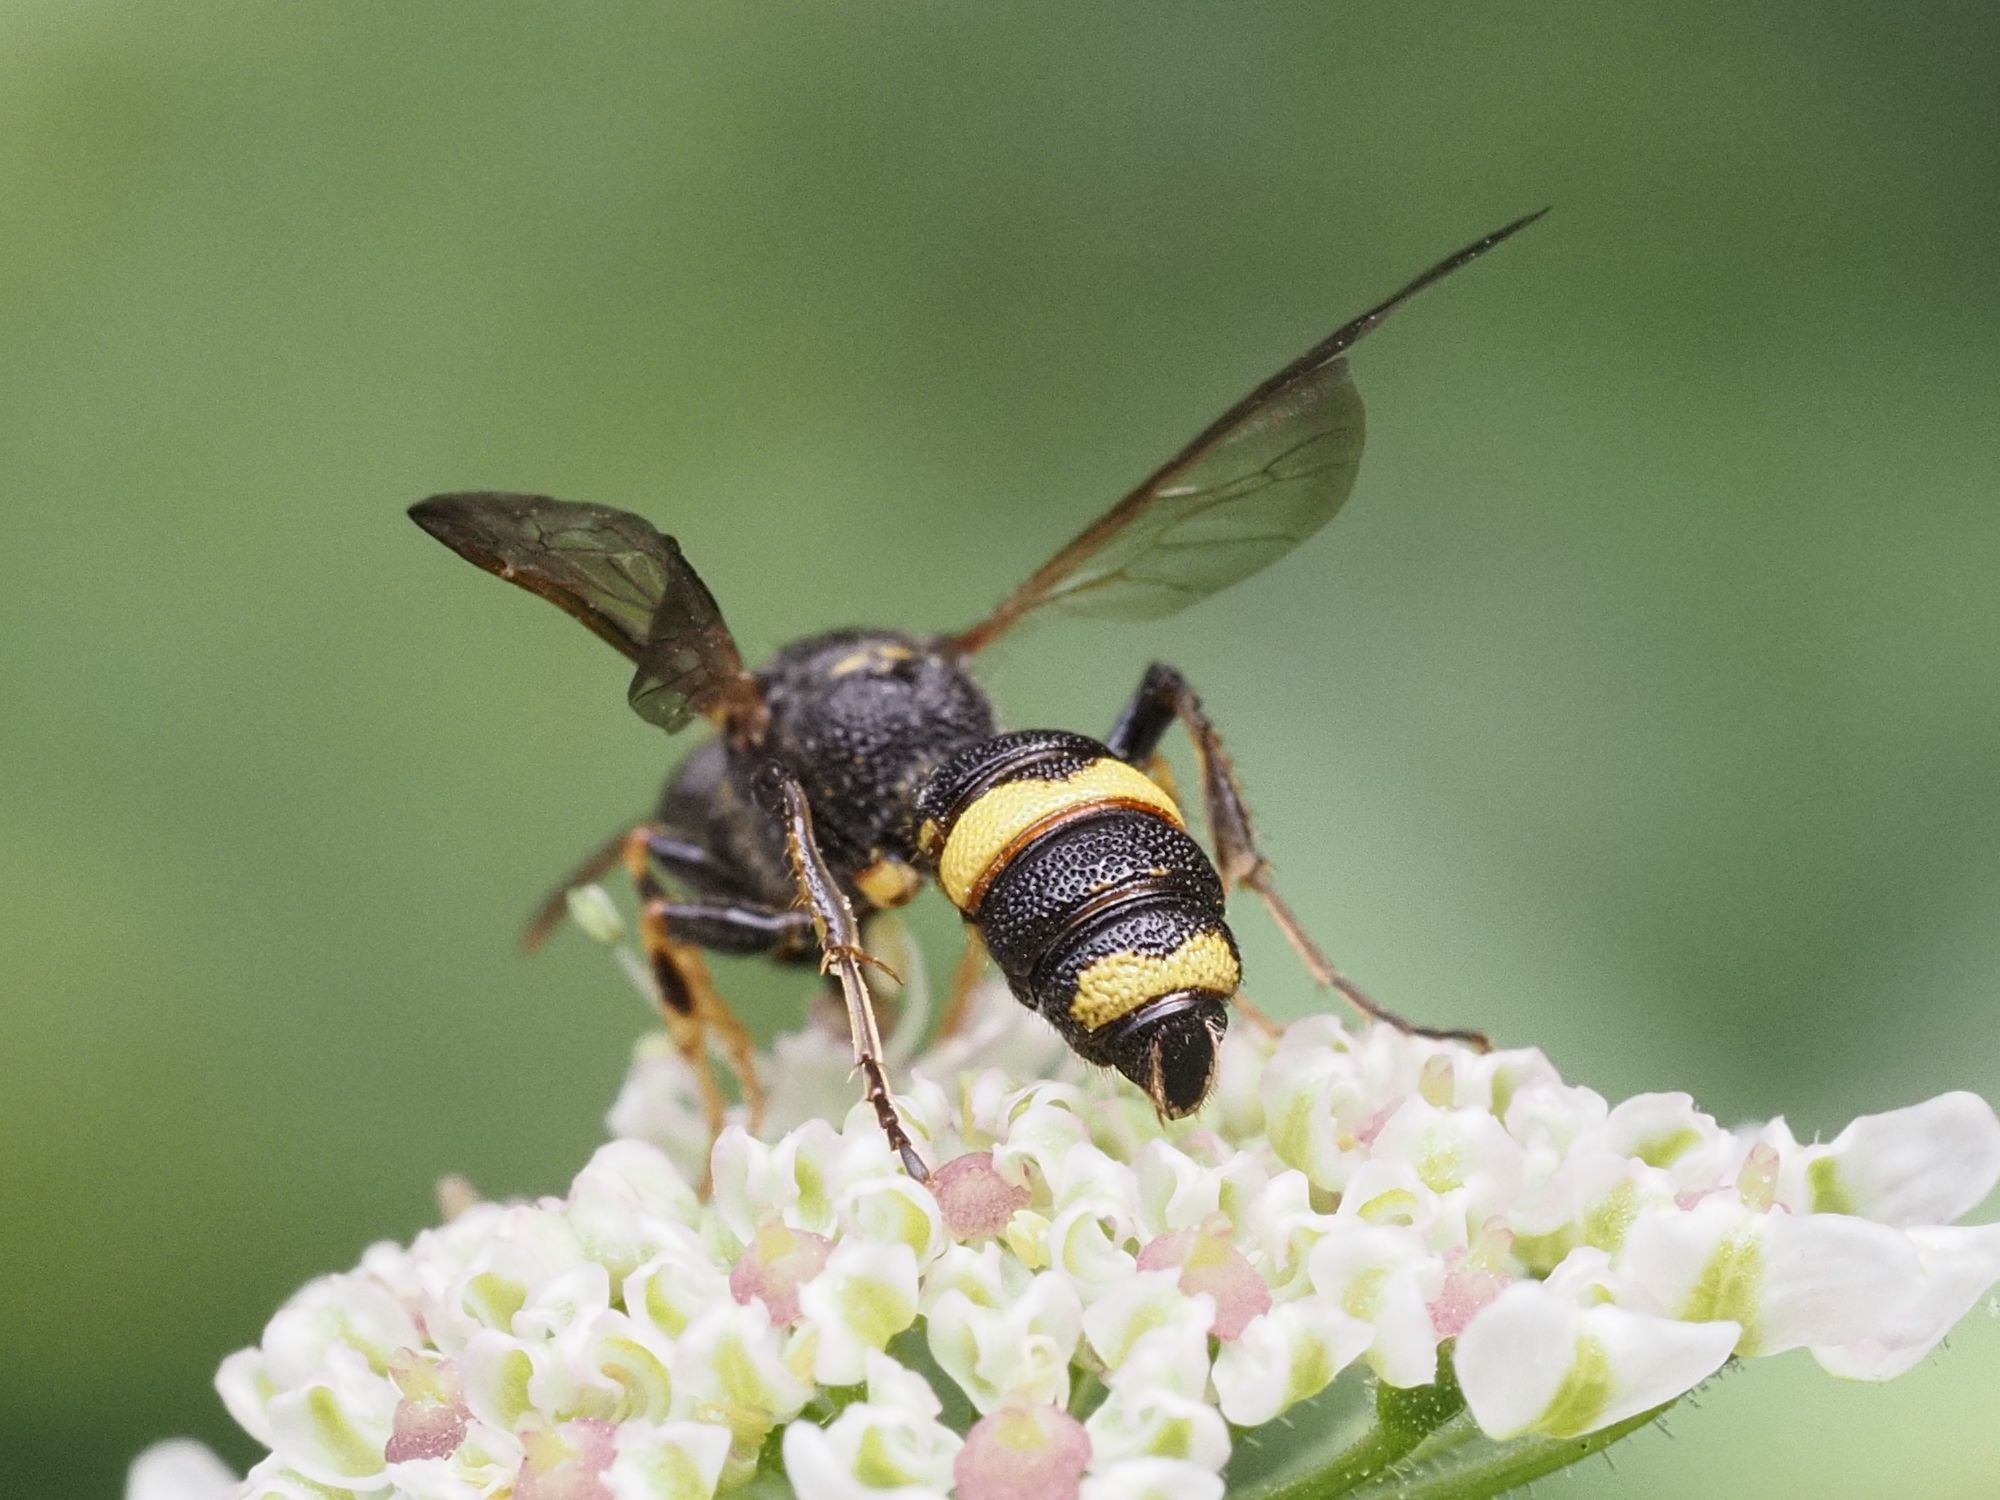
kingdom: Animalia
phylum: Arthropoda
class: Insecta
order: Hymenoptera
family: Crabronidae
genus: Cerceris
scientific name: Cerceris hortivaga
